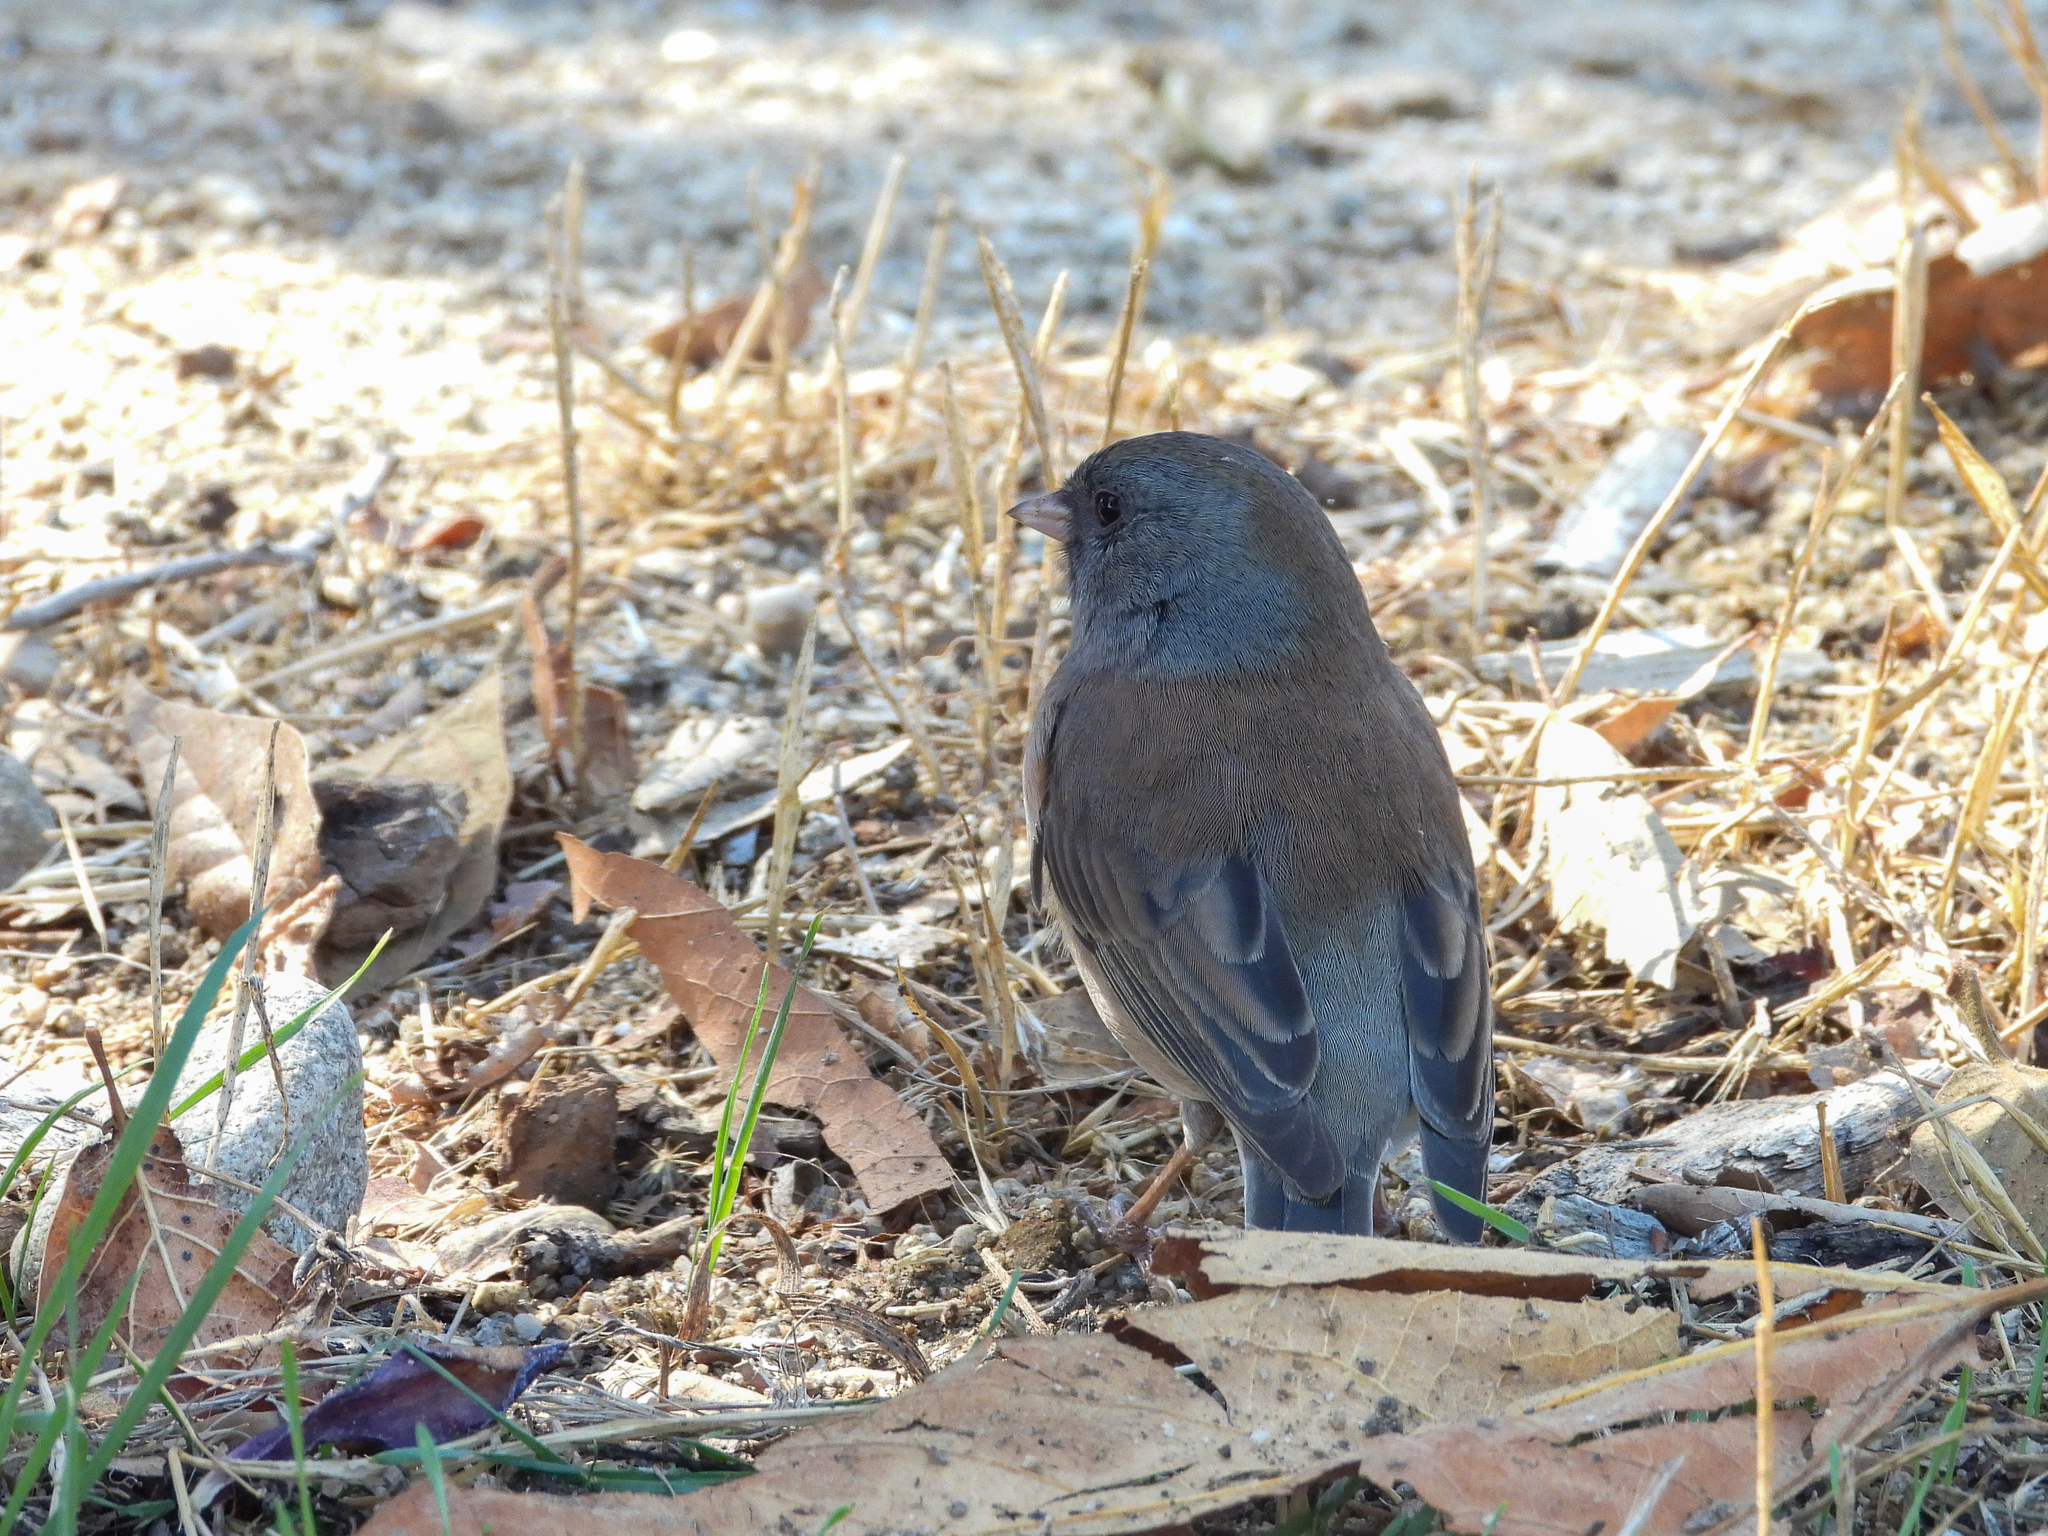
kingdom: Animalia
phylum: Chordata
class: Aves
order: Passeriformes
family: Passerellidae
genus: Junco
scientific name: Junco hyemalis
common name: Dark-eyed junco
